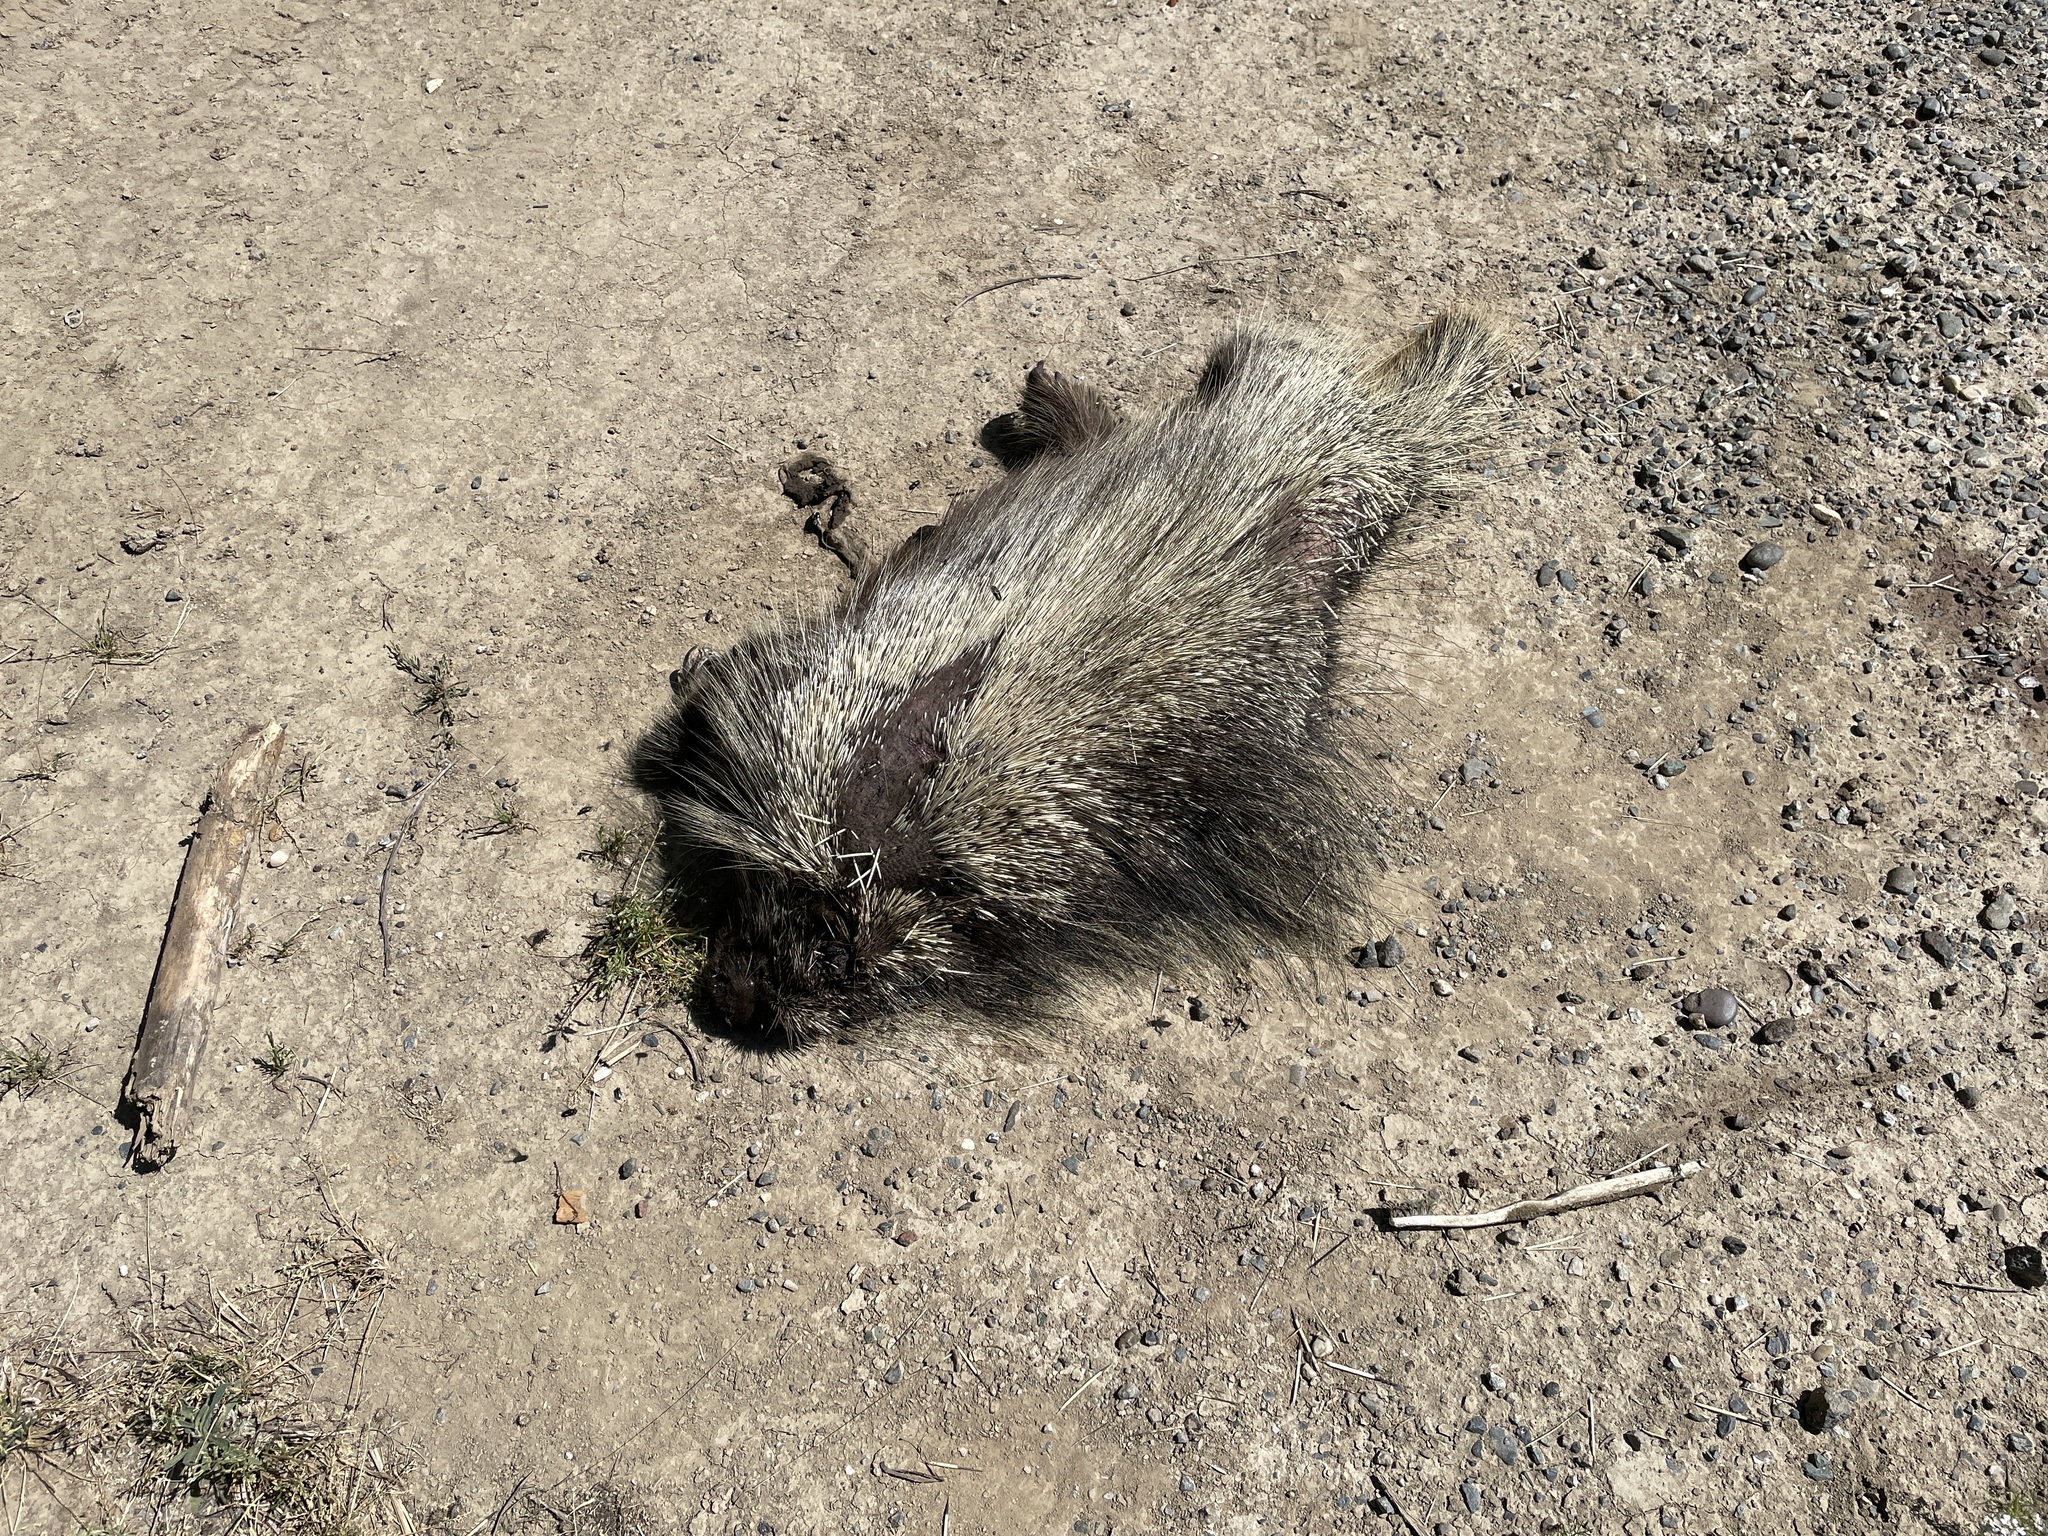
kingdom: Animalia
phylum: Chordata
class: Mammalia
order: Rodentia
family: Erethizontidae
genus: Erethizon
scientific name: Erethizon dorsatus
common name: North american porcupine
